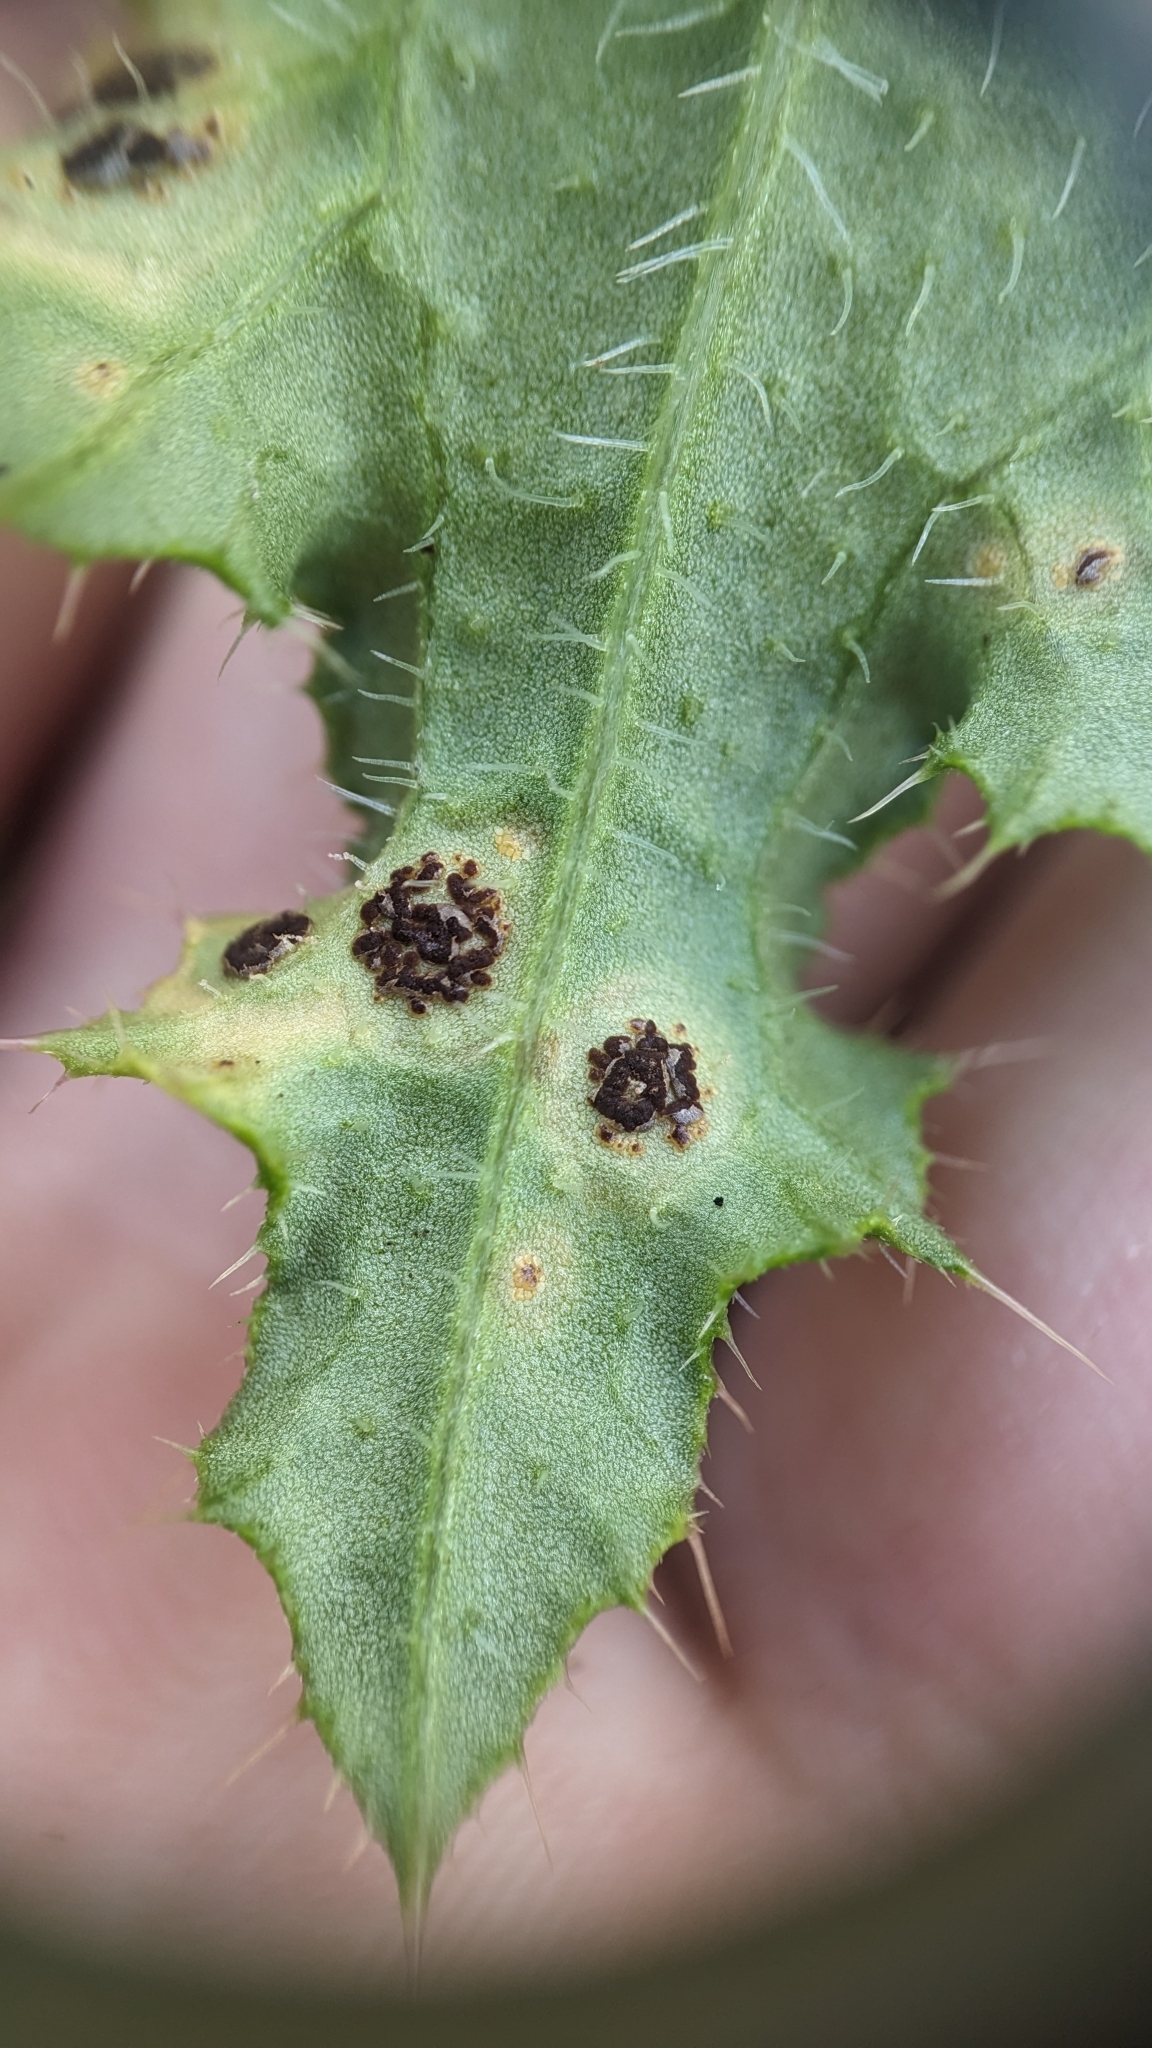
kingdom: Fungi
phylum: Basidiomycota
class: Pucciniomycetes
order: Pucciniales
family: Pucciniaceae
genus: Puccinia
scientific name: Puccinia cnici-oleracei
